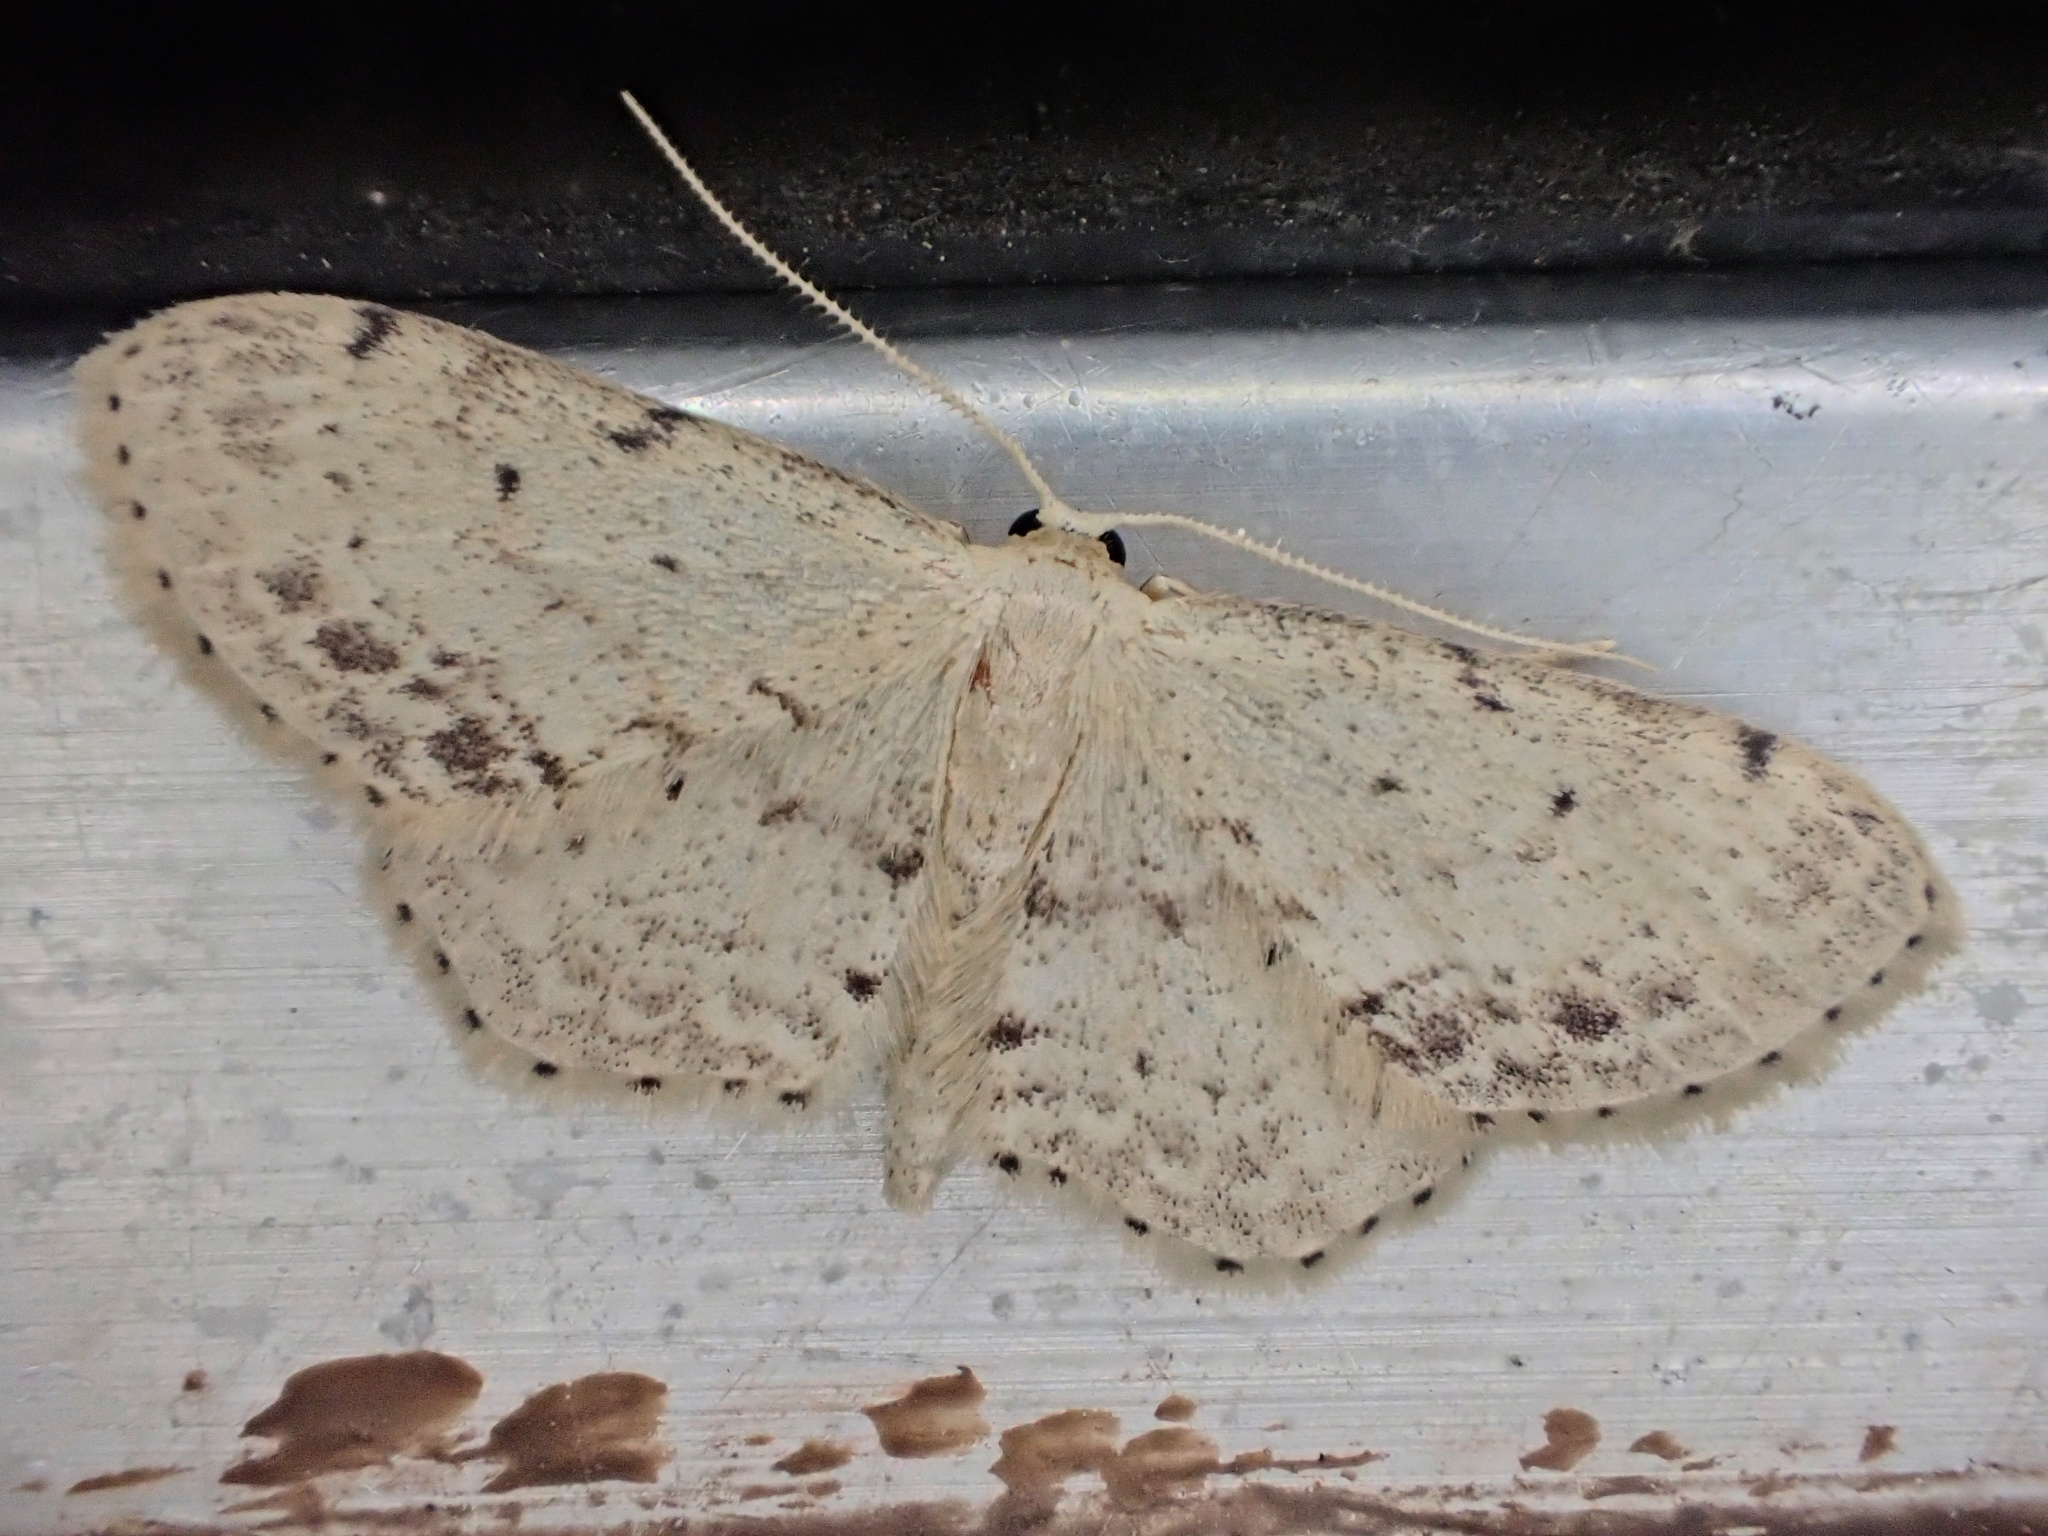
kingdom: Animalia
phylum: Arthropoda
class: Insecta
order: Lepidoptera
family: Geometridae
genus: Idaea
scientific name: Idaea dimidiata
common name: Single-dotted wave
